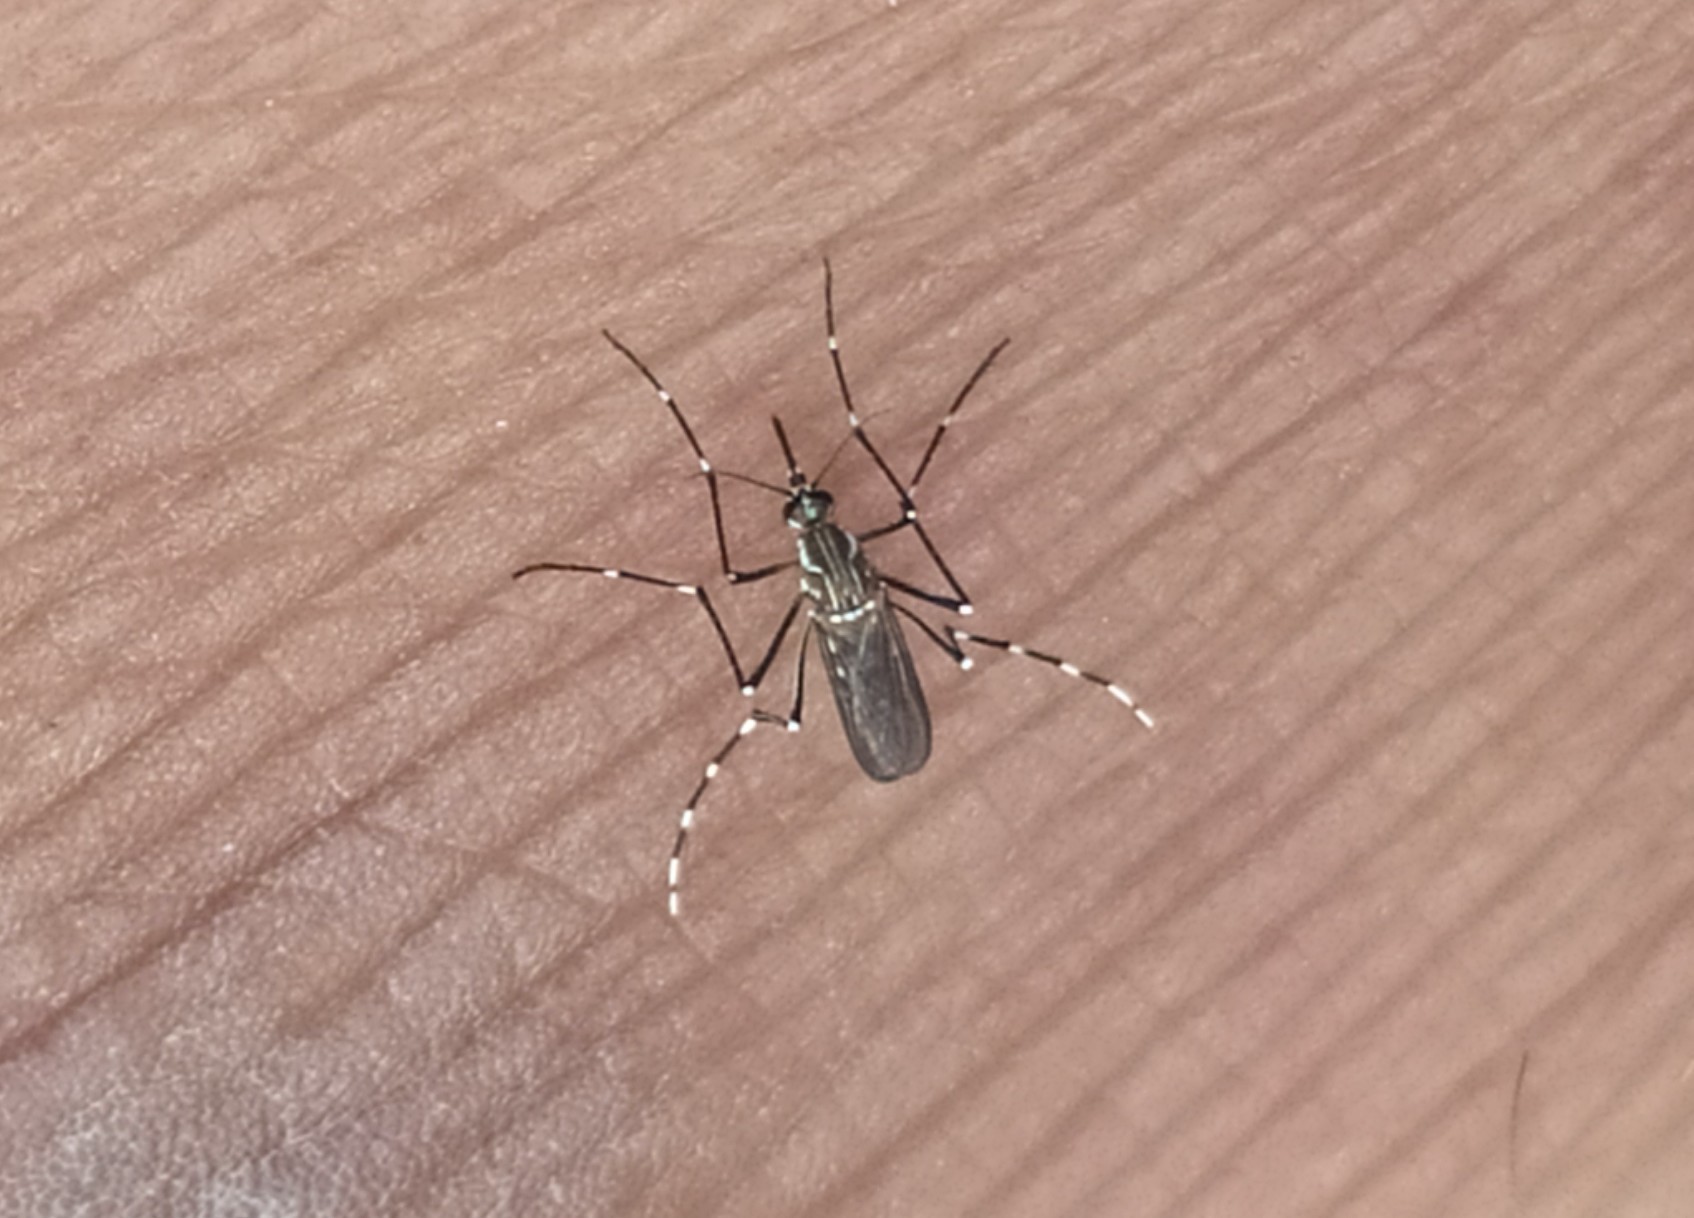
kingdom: Animalia
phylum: Arthropoda
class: Insecta
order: Diptera
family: Culicidae
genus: Aedes
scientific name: Aedes aegypti
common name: Yellow fever mosquito
